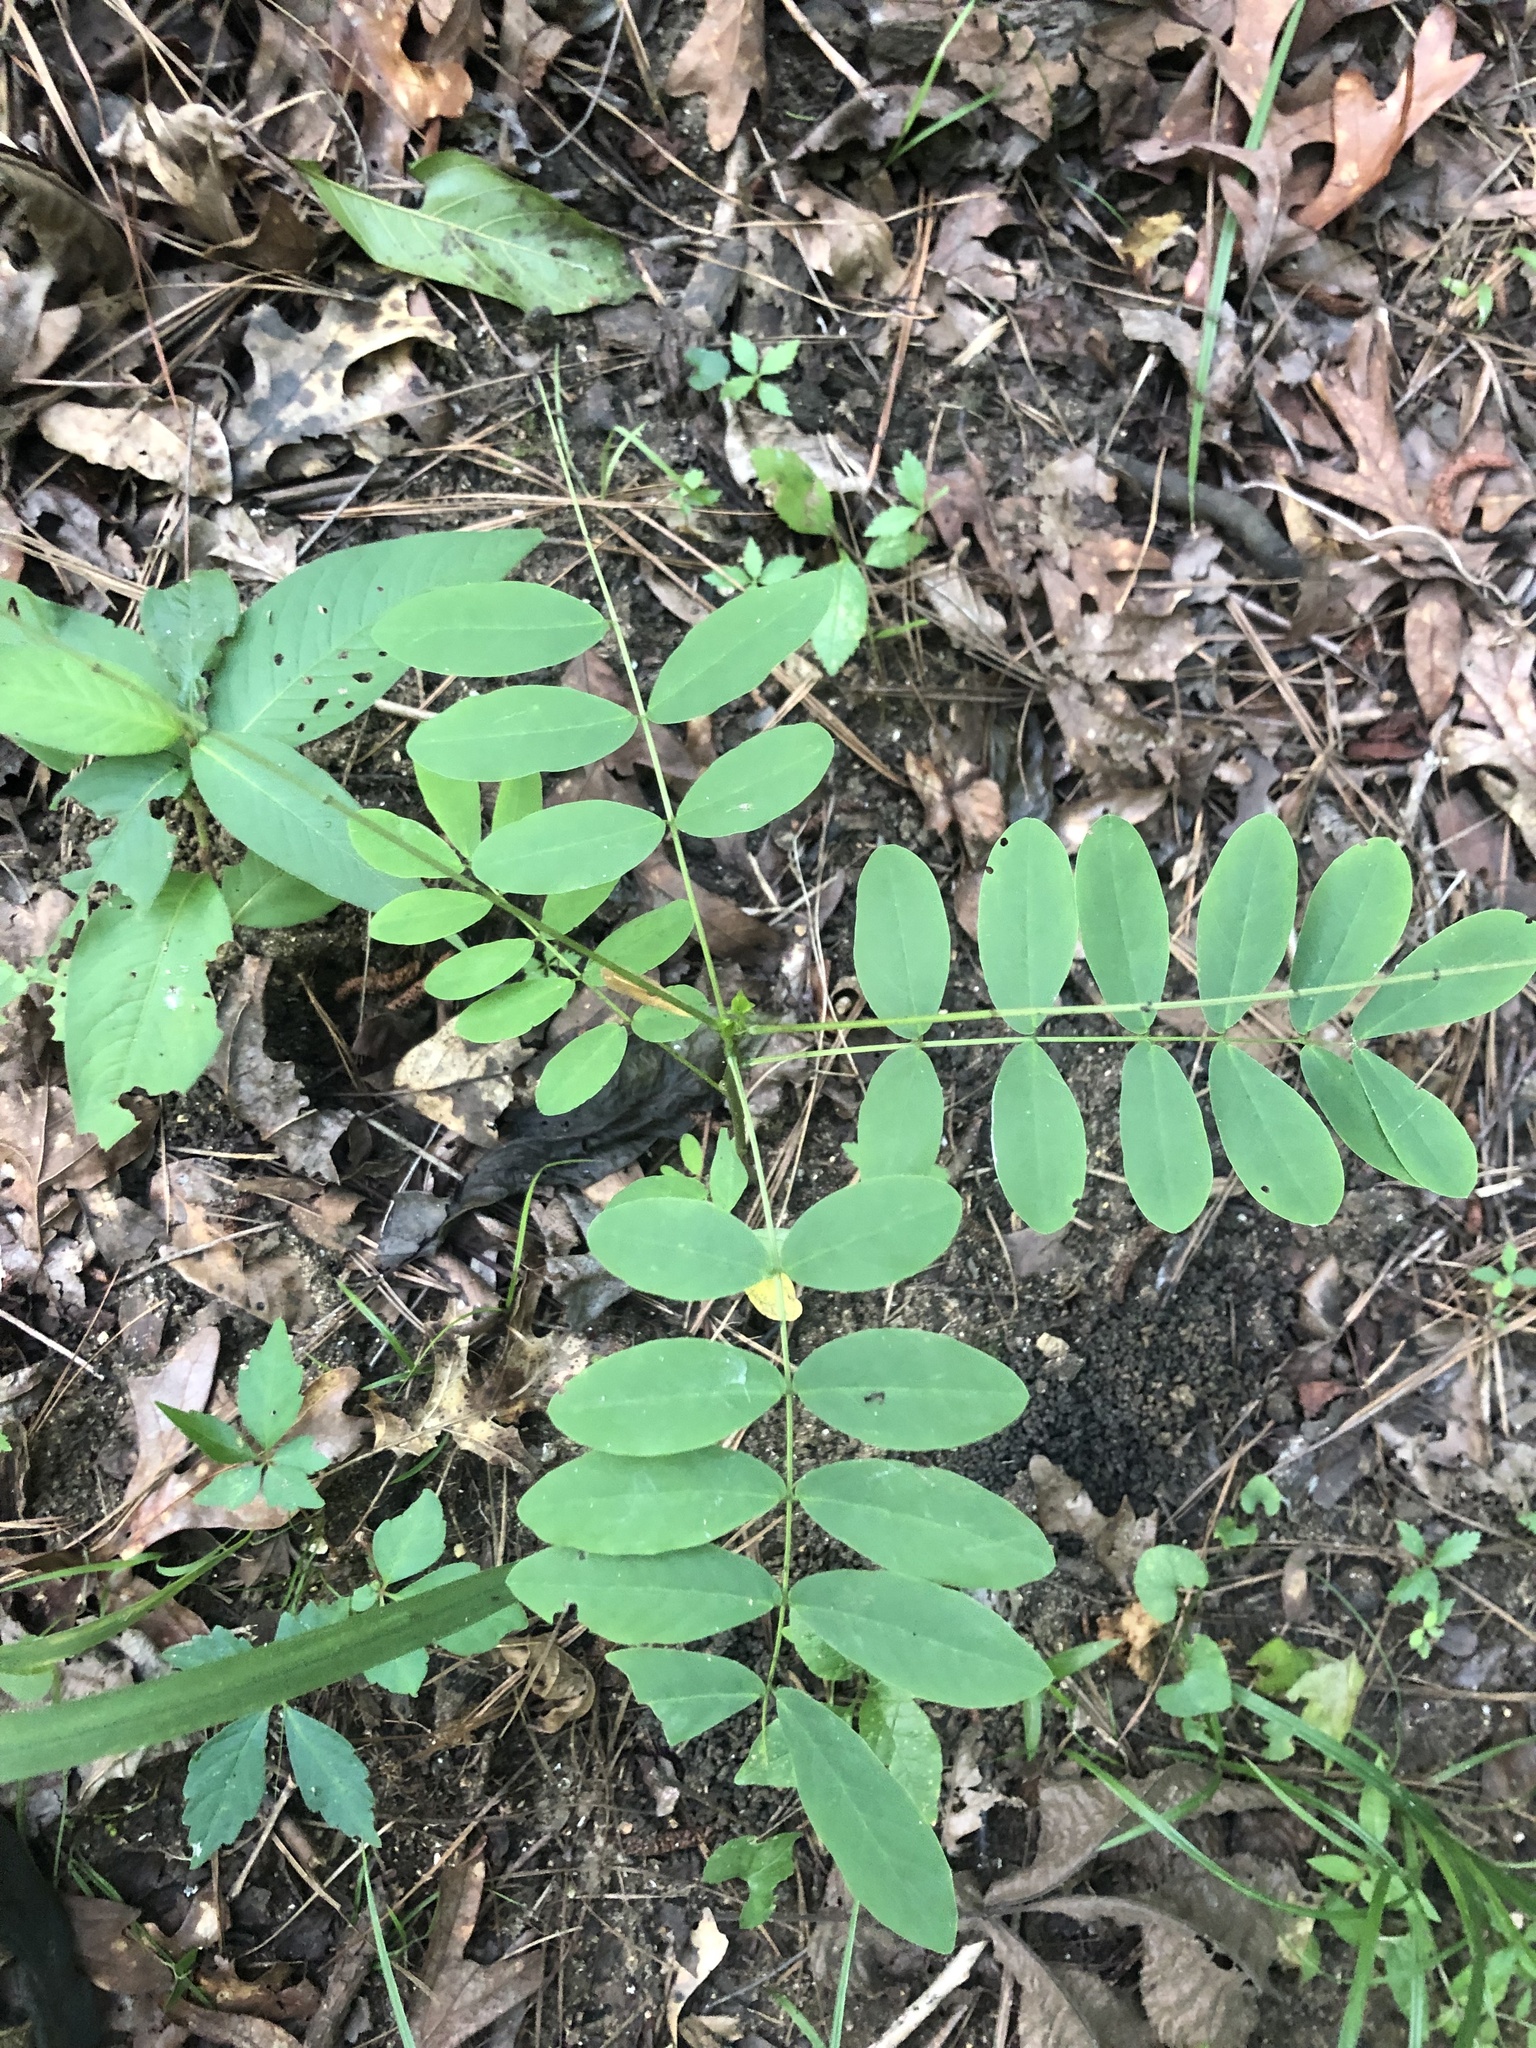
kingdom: Plantae
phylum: Tracheophyta
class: Magnoliopsida
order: Fabales
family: Fabaceae
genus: Senna
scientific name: Senna marilandica
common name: American senna
